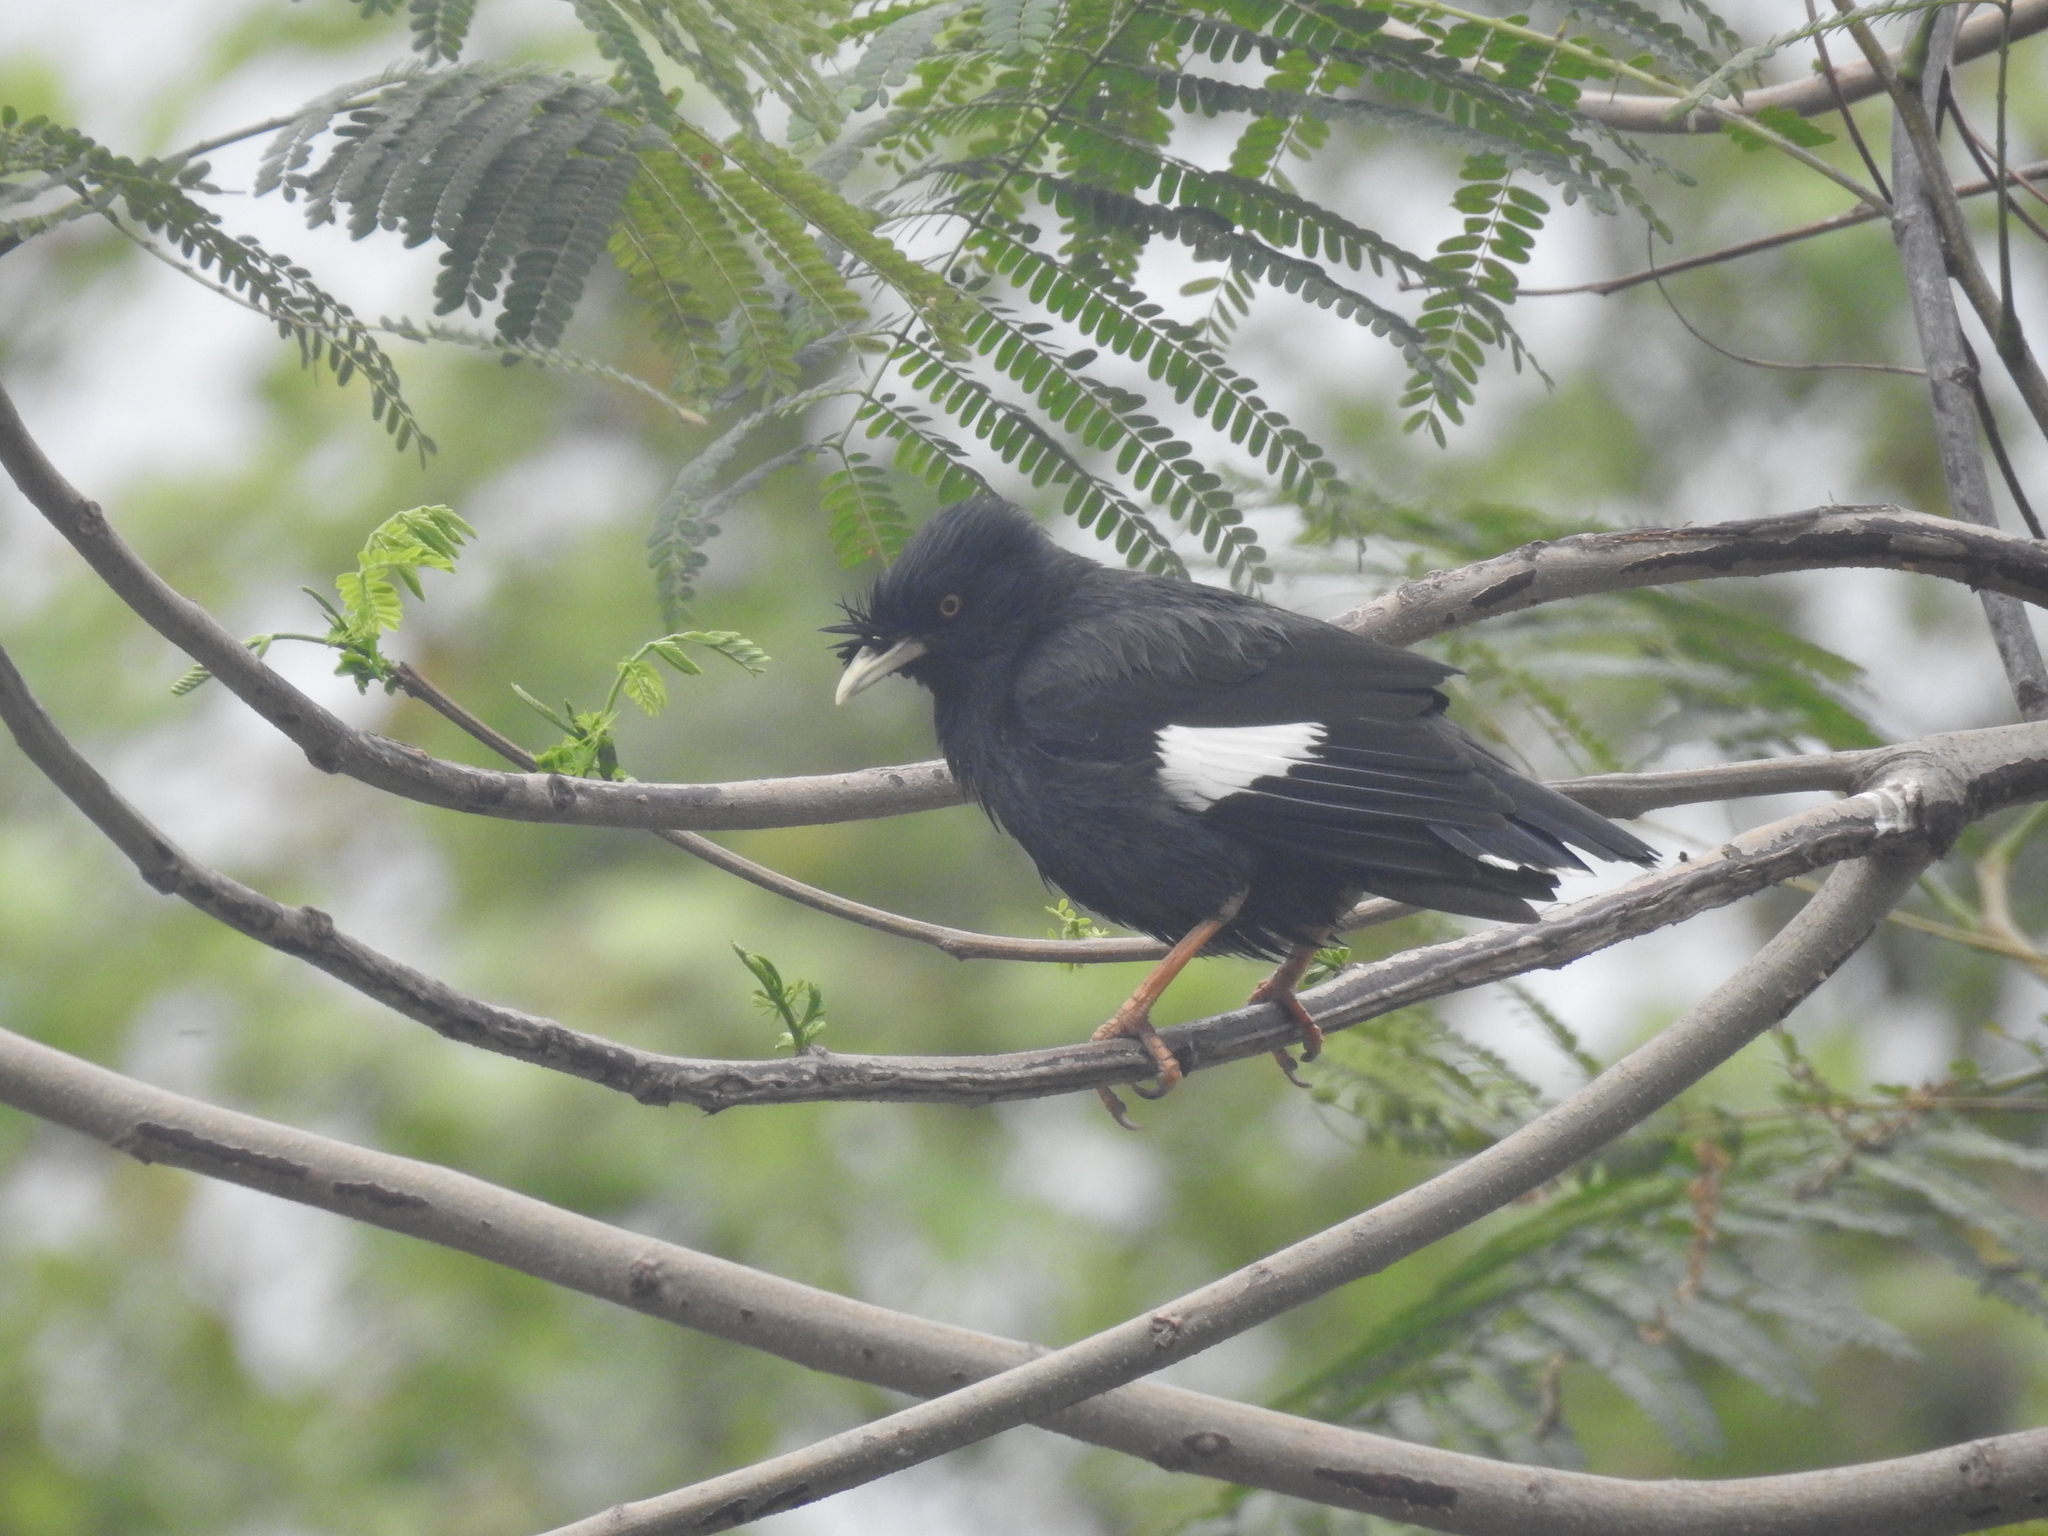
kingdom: Animalia
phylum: Chordata
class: Aves
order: Passeriformes
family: Sturnidae
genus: Acridotheres
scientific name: Acridotheres cristatellus
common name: Crested myna
